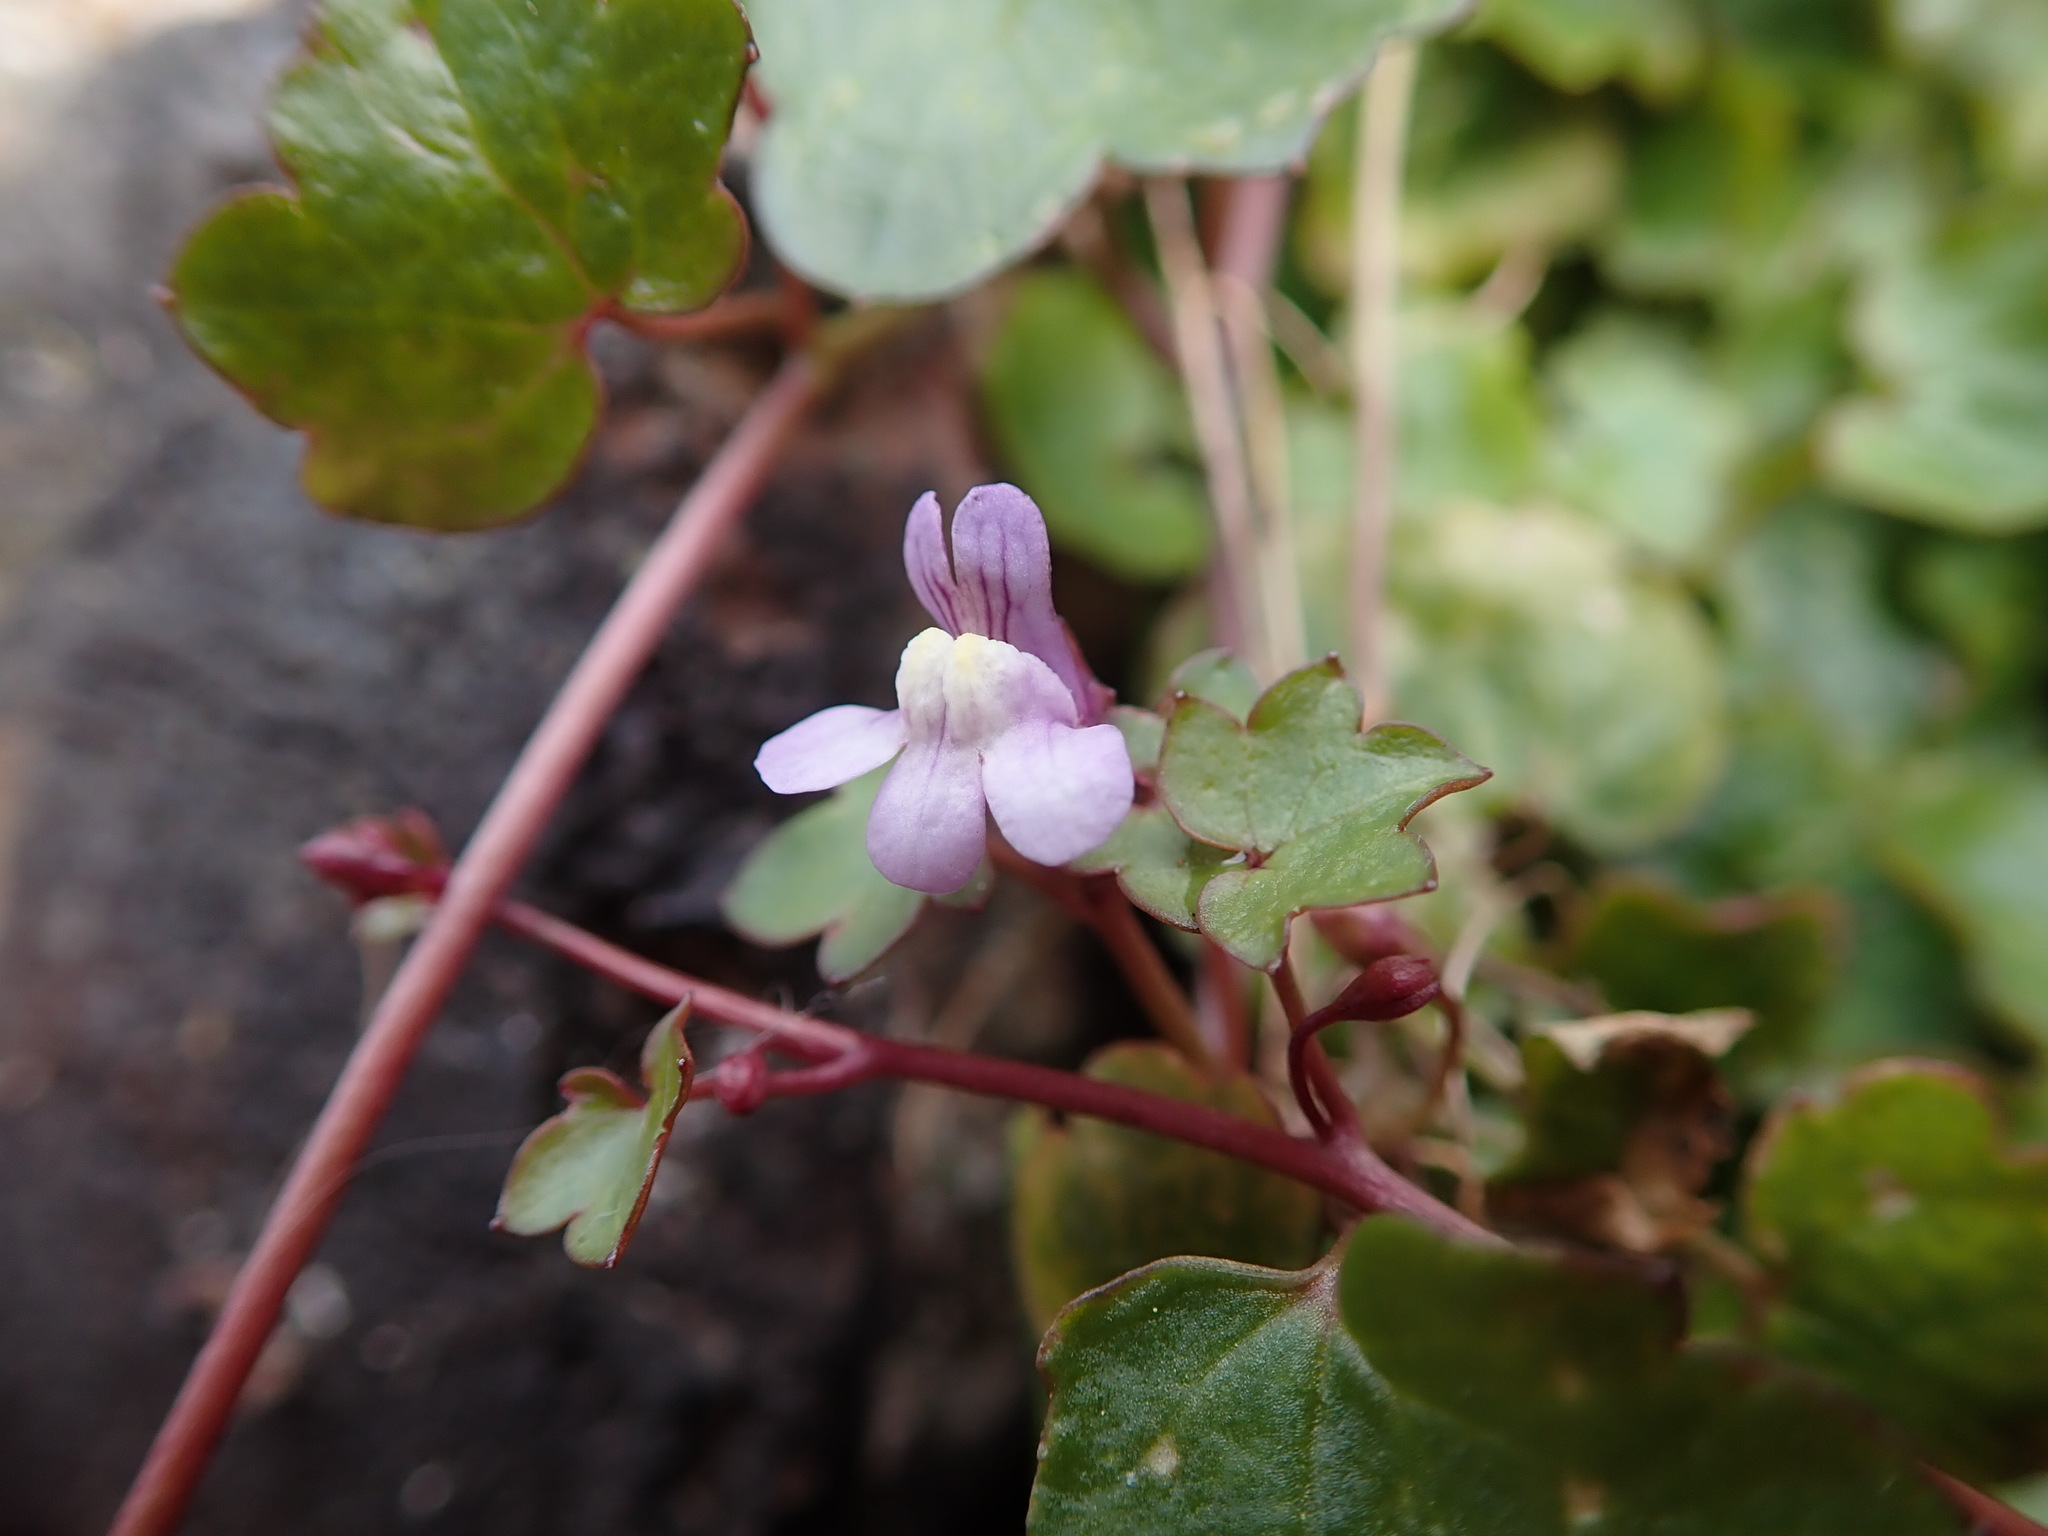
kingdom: Plantae
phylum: Tracheophyta
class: Magnoliopsida
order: Lamiales
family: Plantaginaceae
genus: Cymbalaria
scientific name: Cymbalaria muralis
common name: Ivy-leaved toadflax
